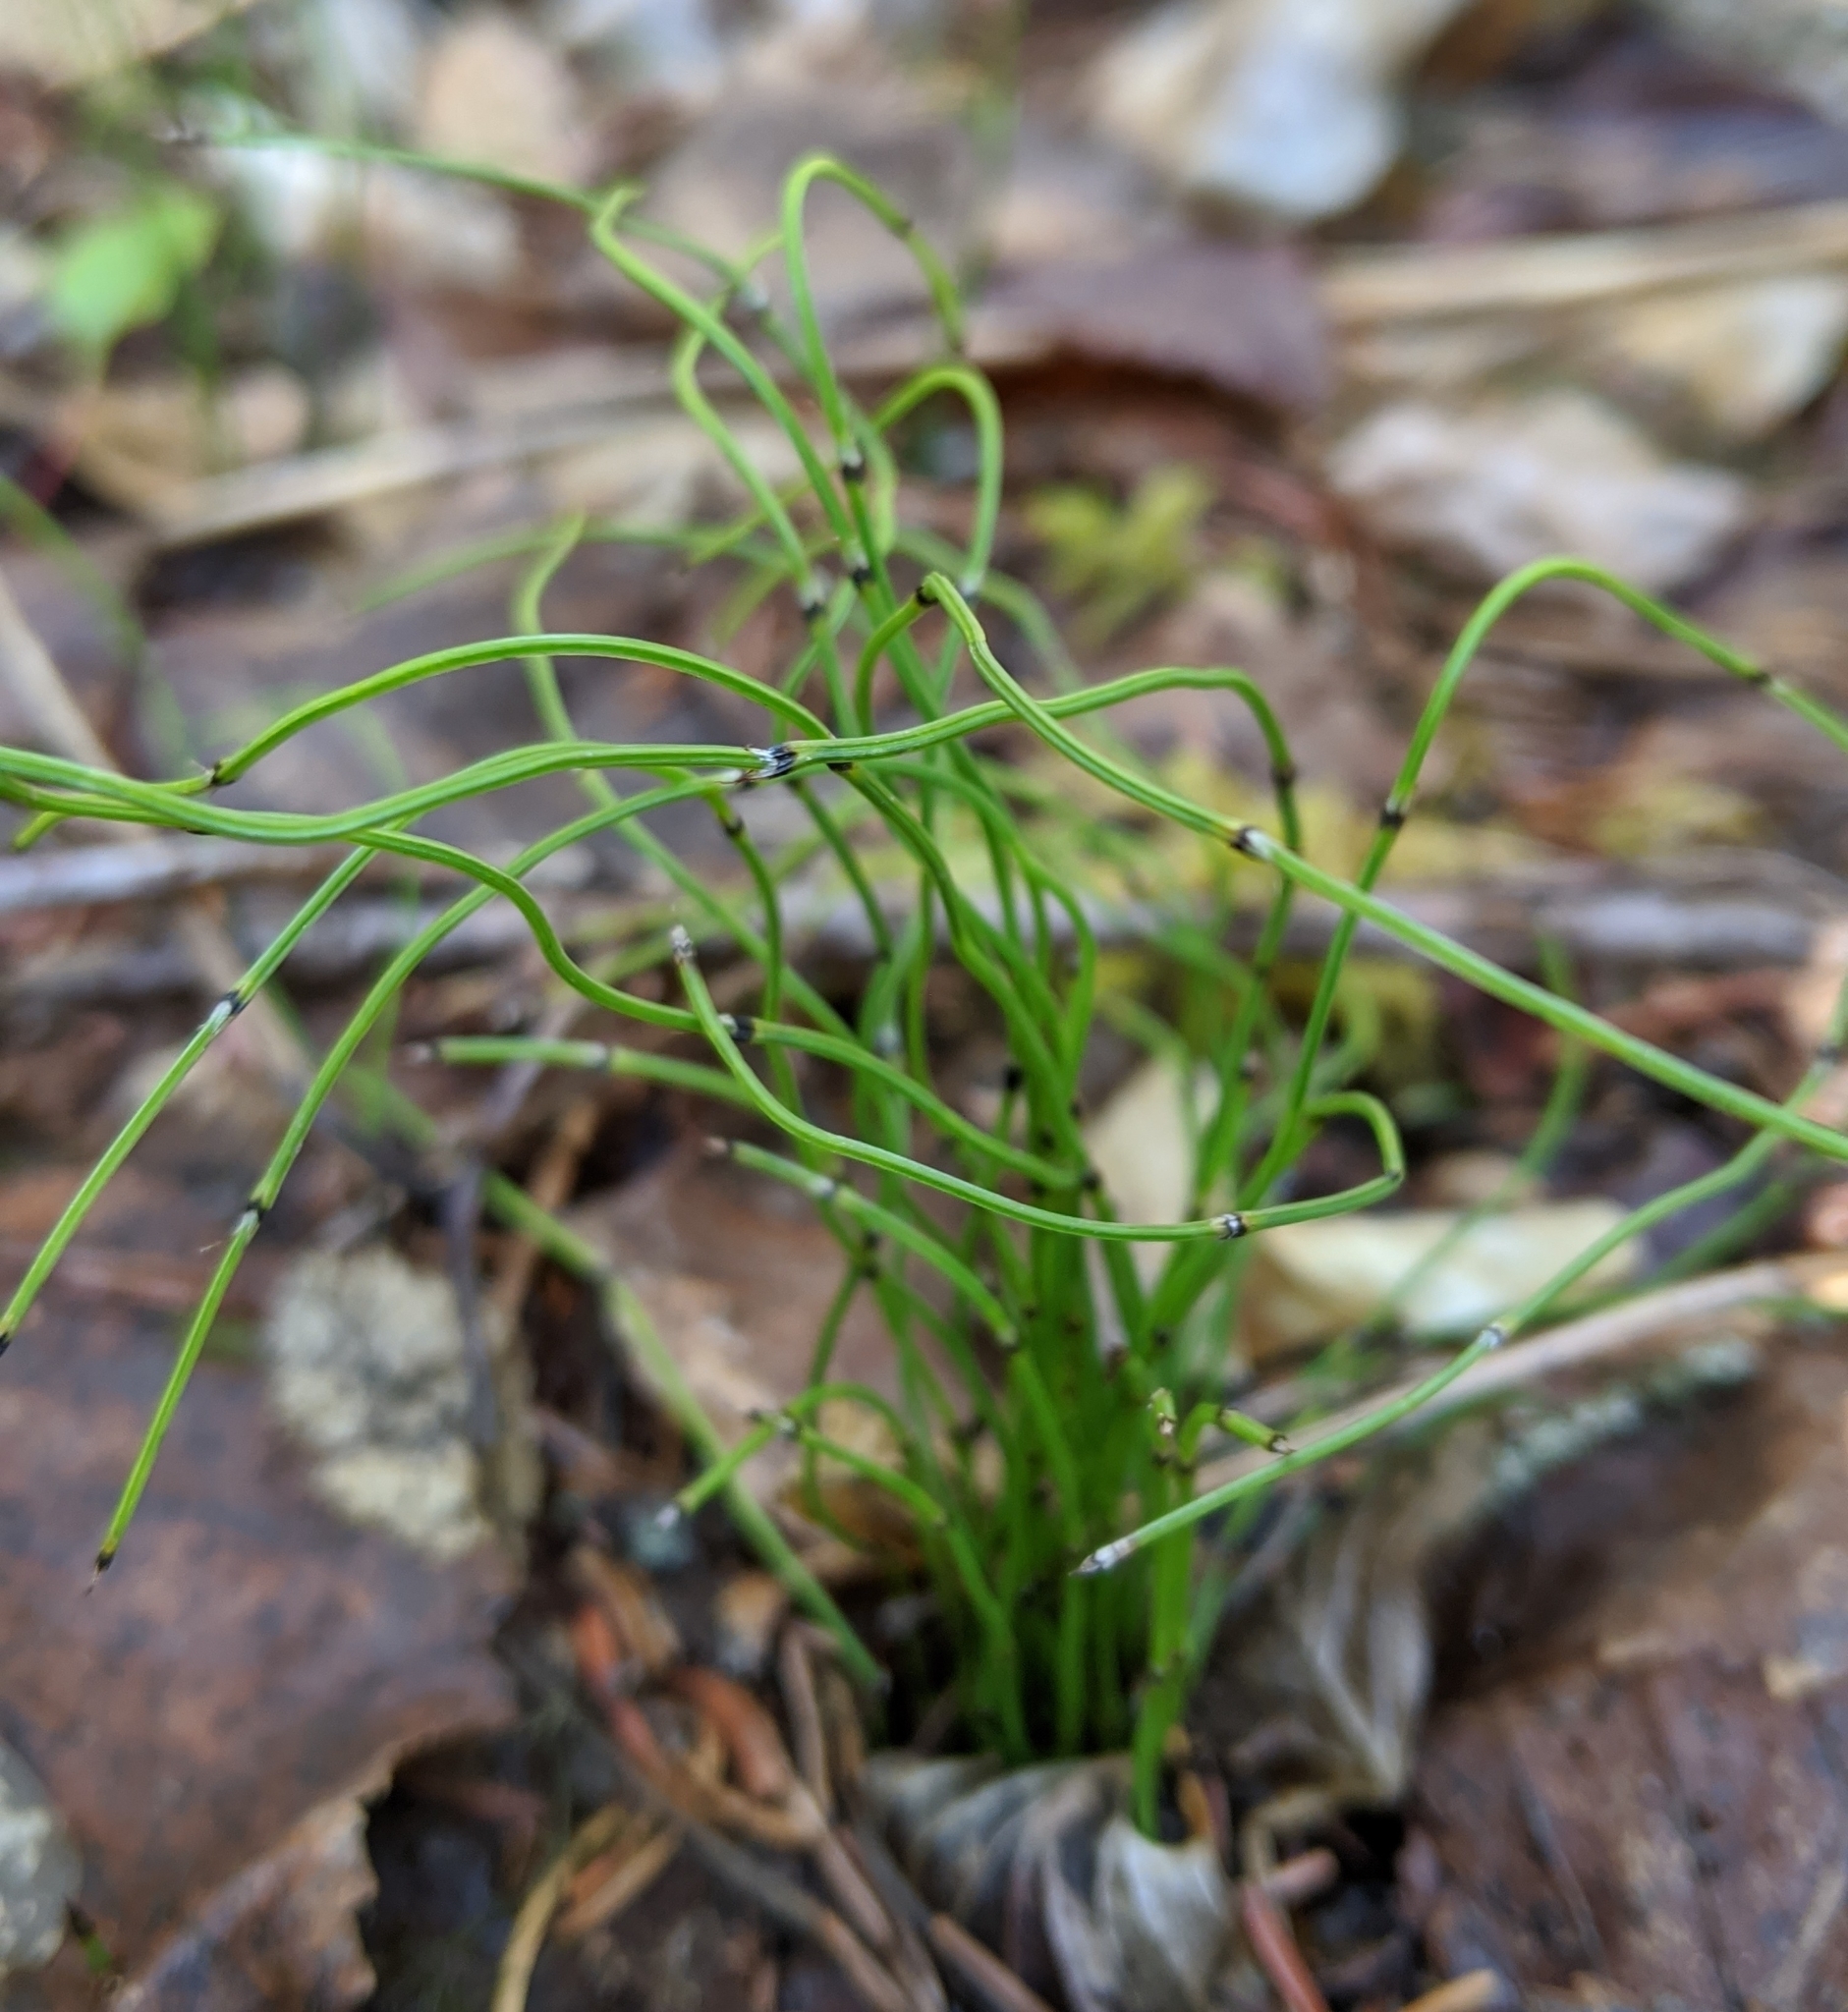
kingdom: Plantae
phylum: Tracheophyta
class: Polypodiopsida
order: Equisetales
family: Equisetaceae
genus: Equisetum
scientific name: Equisetum scirpoides
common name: Delicate horsetail
